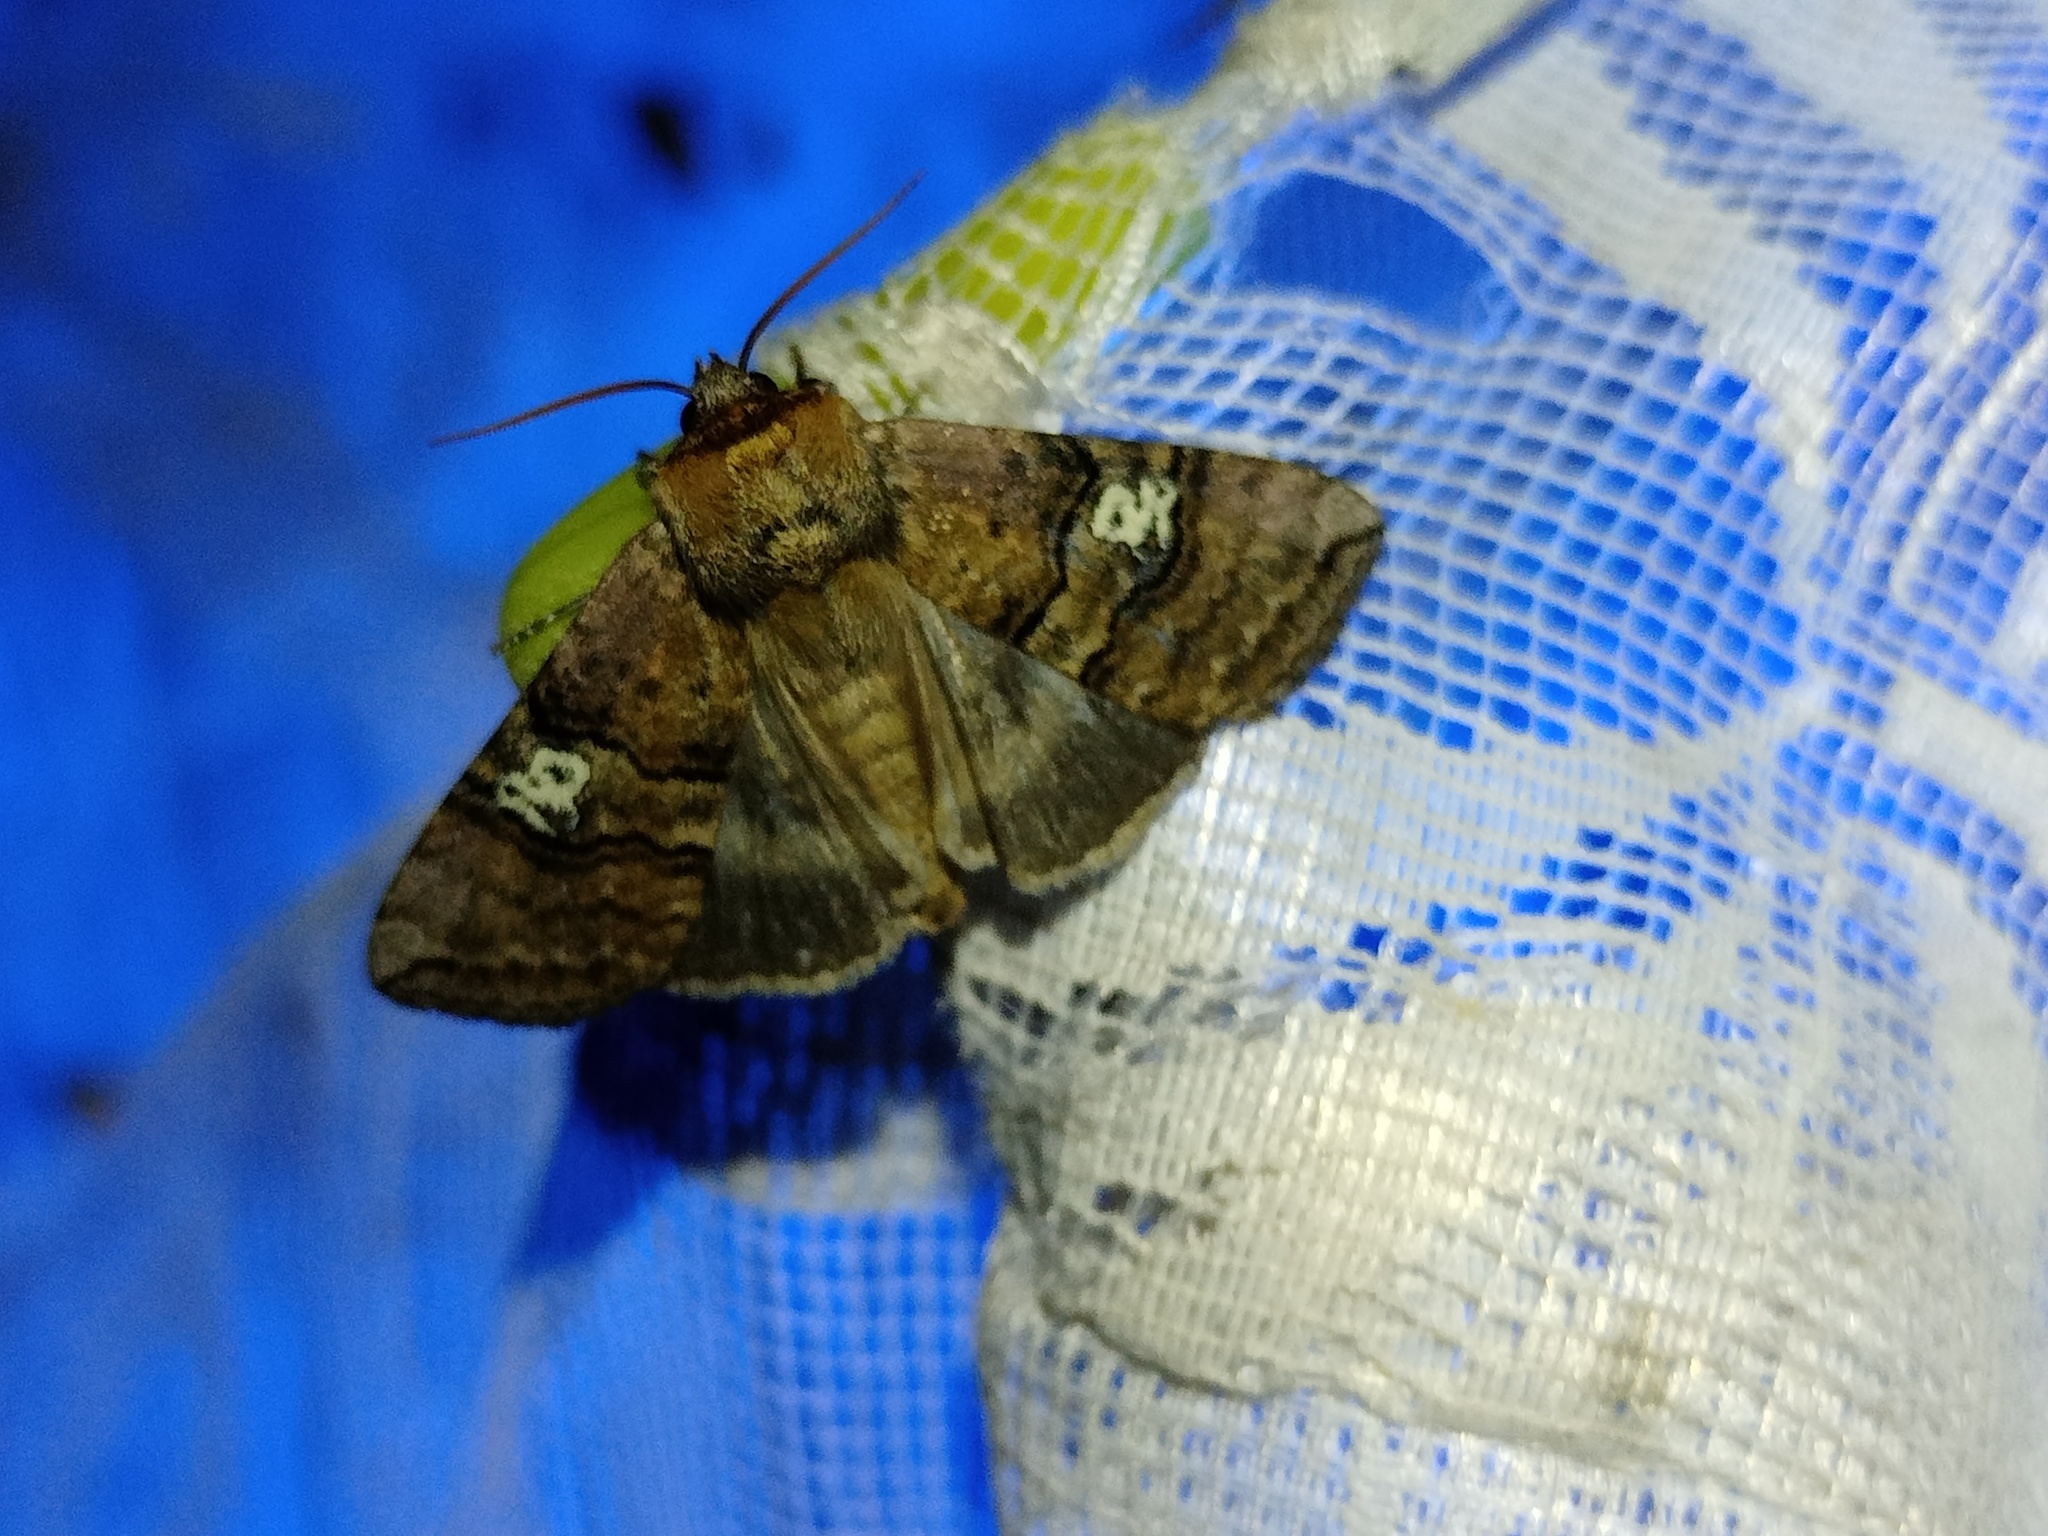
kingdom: Animalia
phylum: Arthropoda
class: Insecta
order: Lepidoptera
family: Drepanidae
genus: Tethea
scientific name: Tethea ocularis
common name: Figure of eighty
